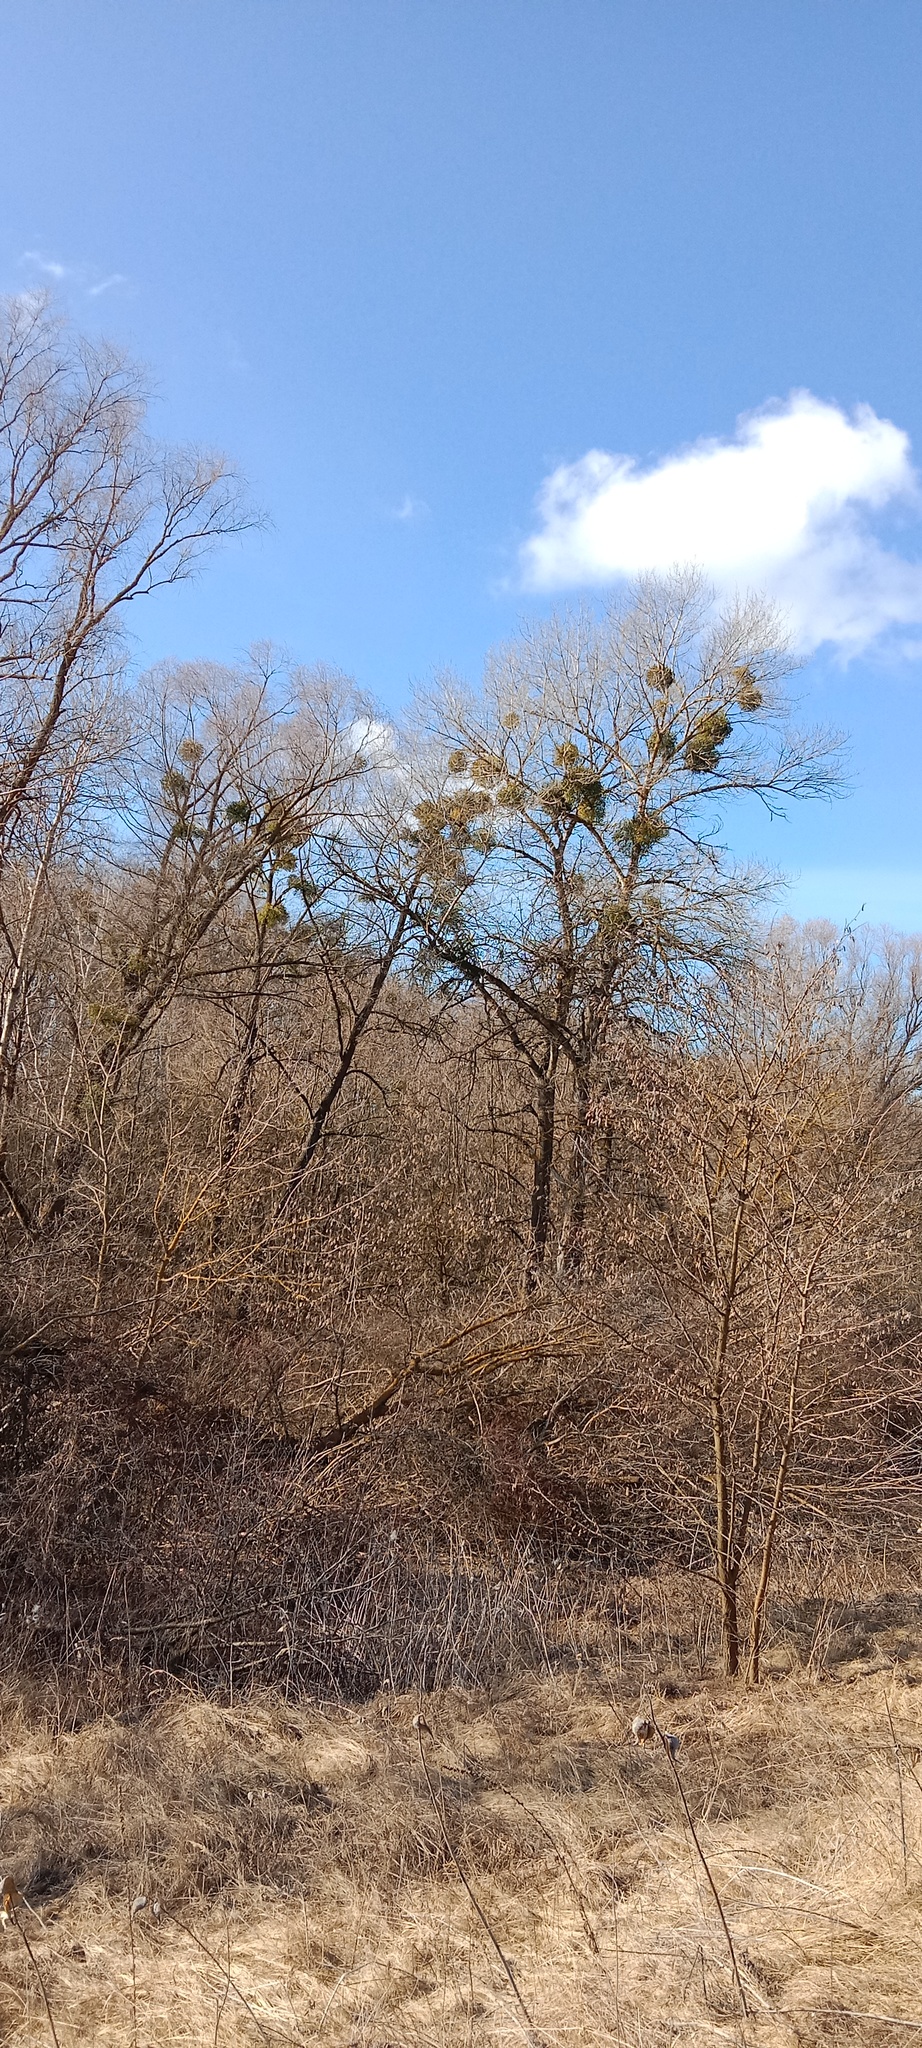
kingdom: Plantae
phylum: Tracheophyta
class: Magnoliopsida
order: Santalales
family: Viscaceae
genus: Viscum
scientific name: Viscum album
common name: Mistletoe
